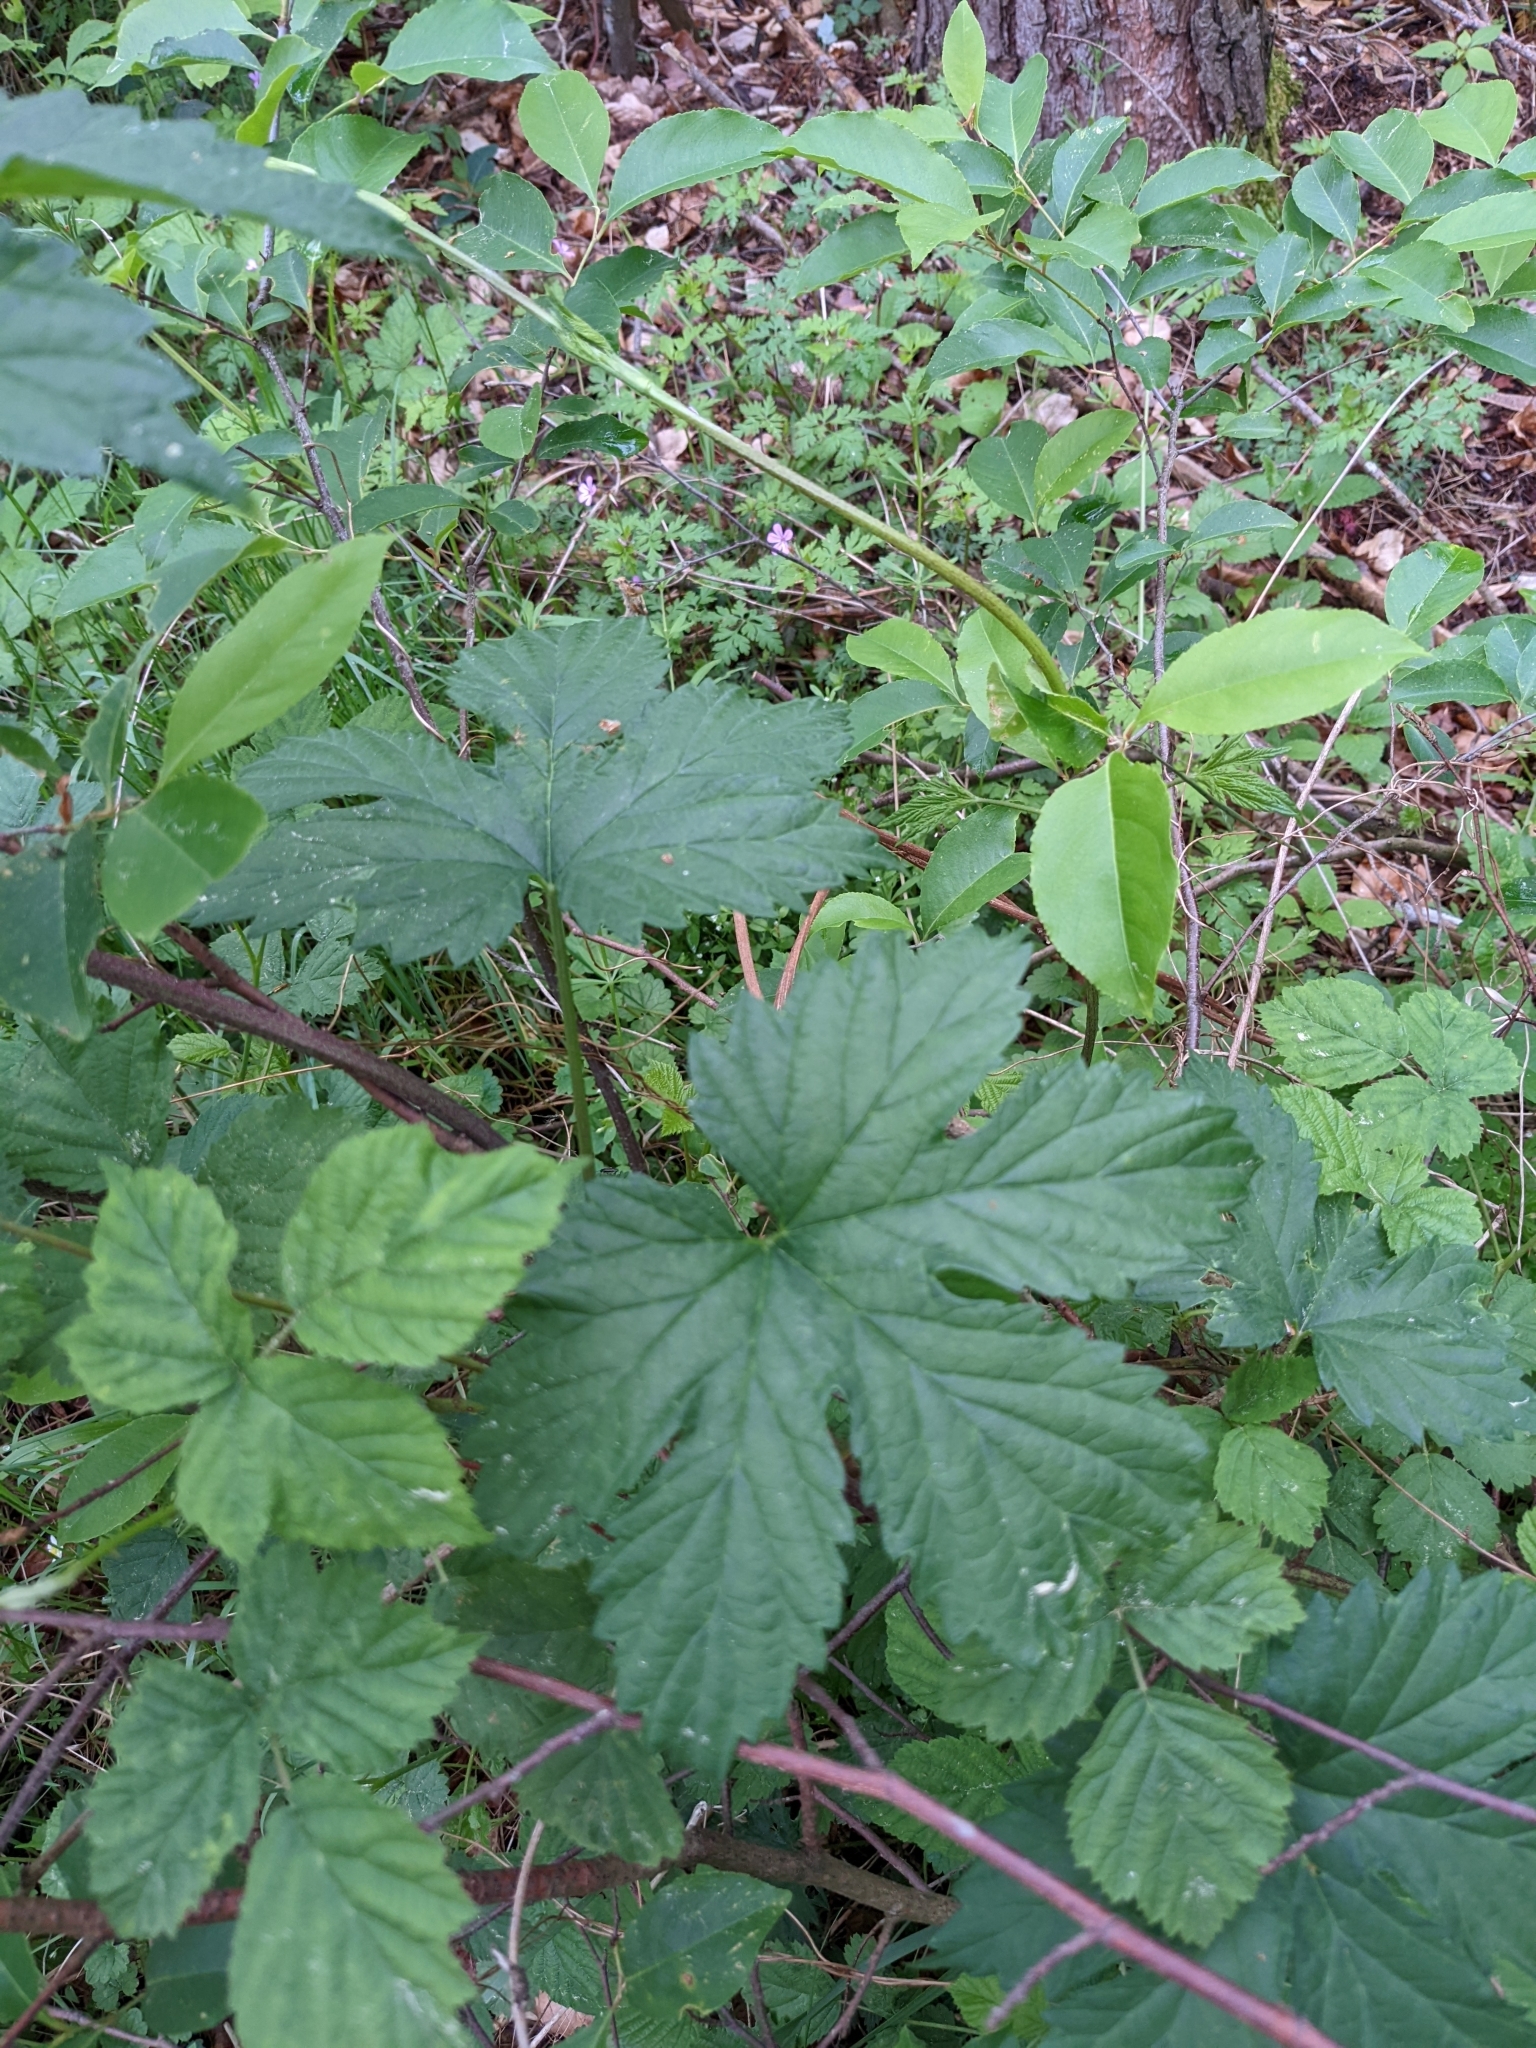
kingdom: Plantae
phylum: Tracheophyta
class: Magnoliopsida
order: Rosales
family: Cannabaceae
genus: Humulus
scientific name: Humulus lupulus
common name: Hop
